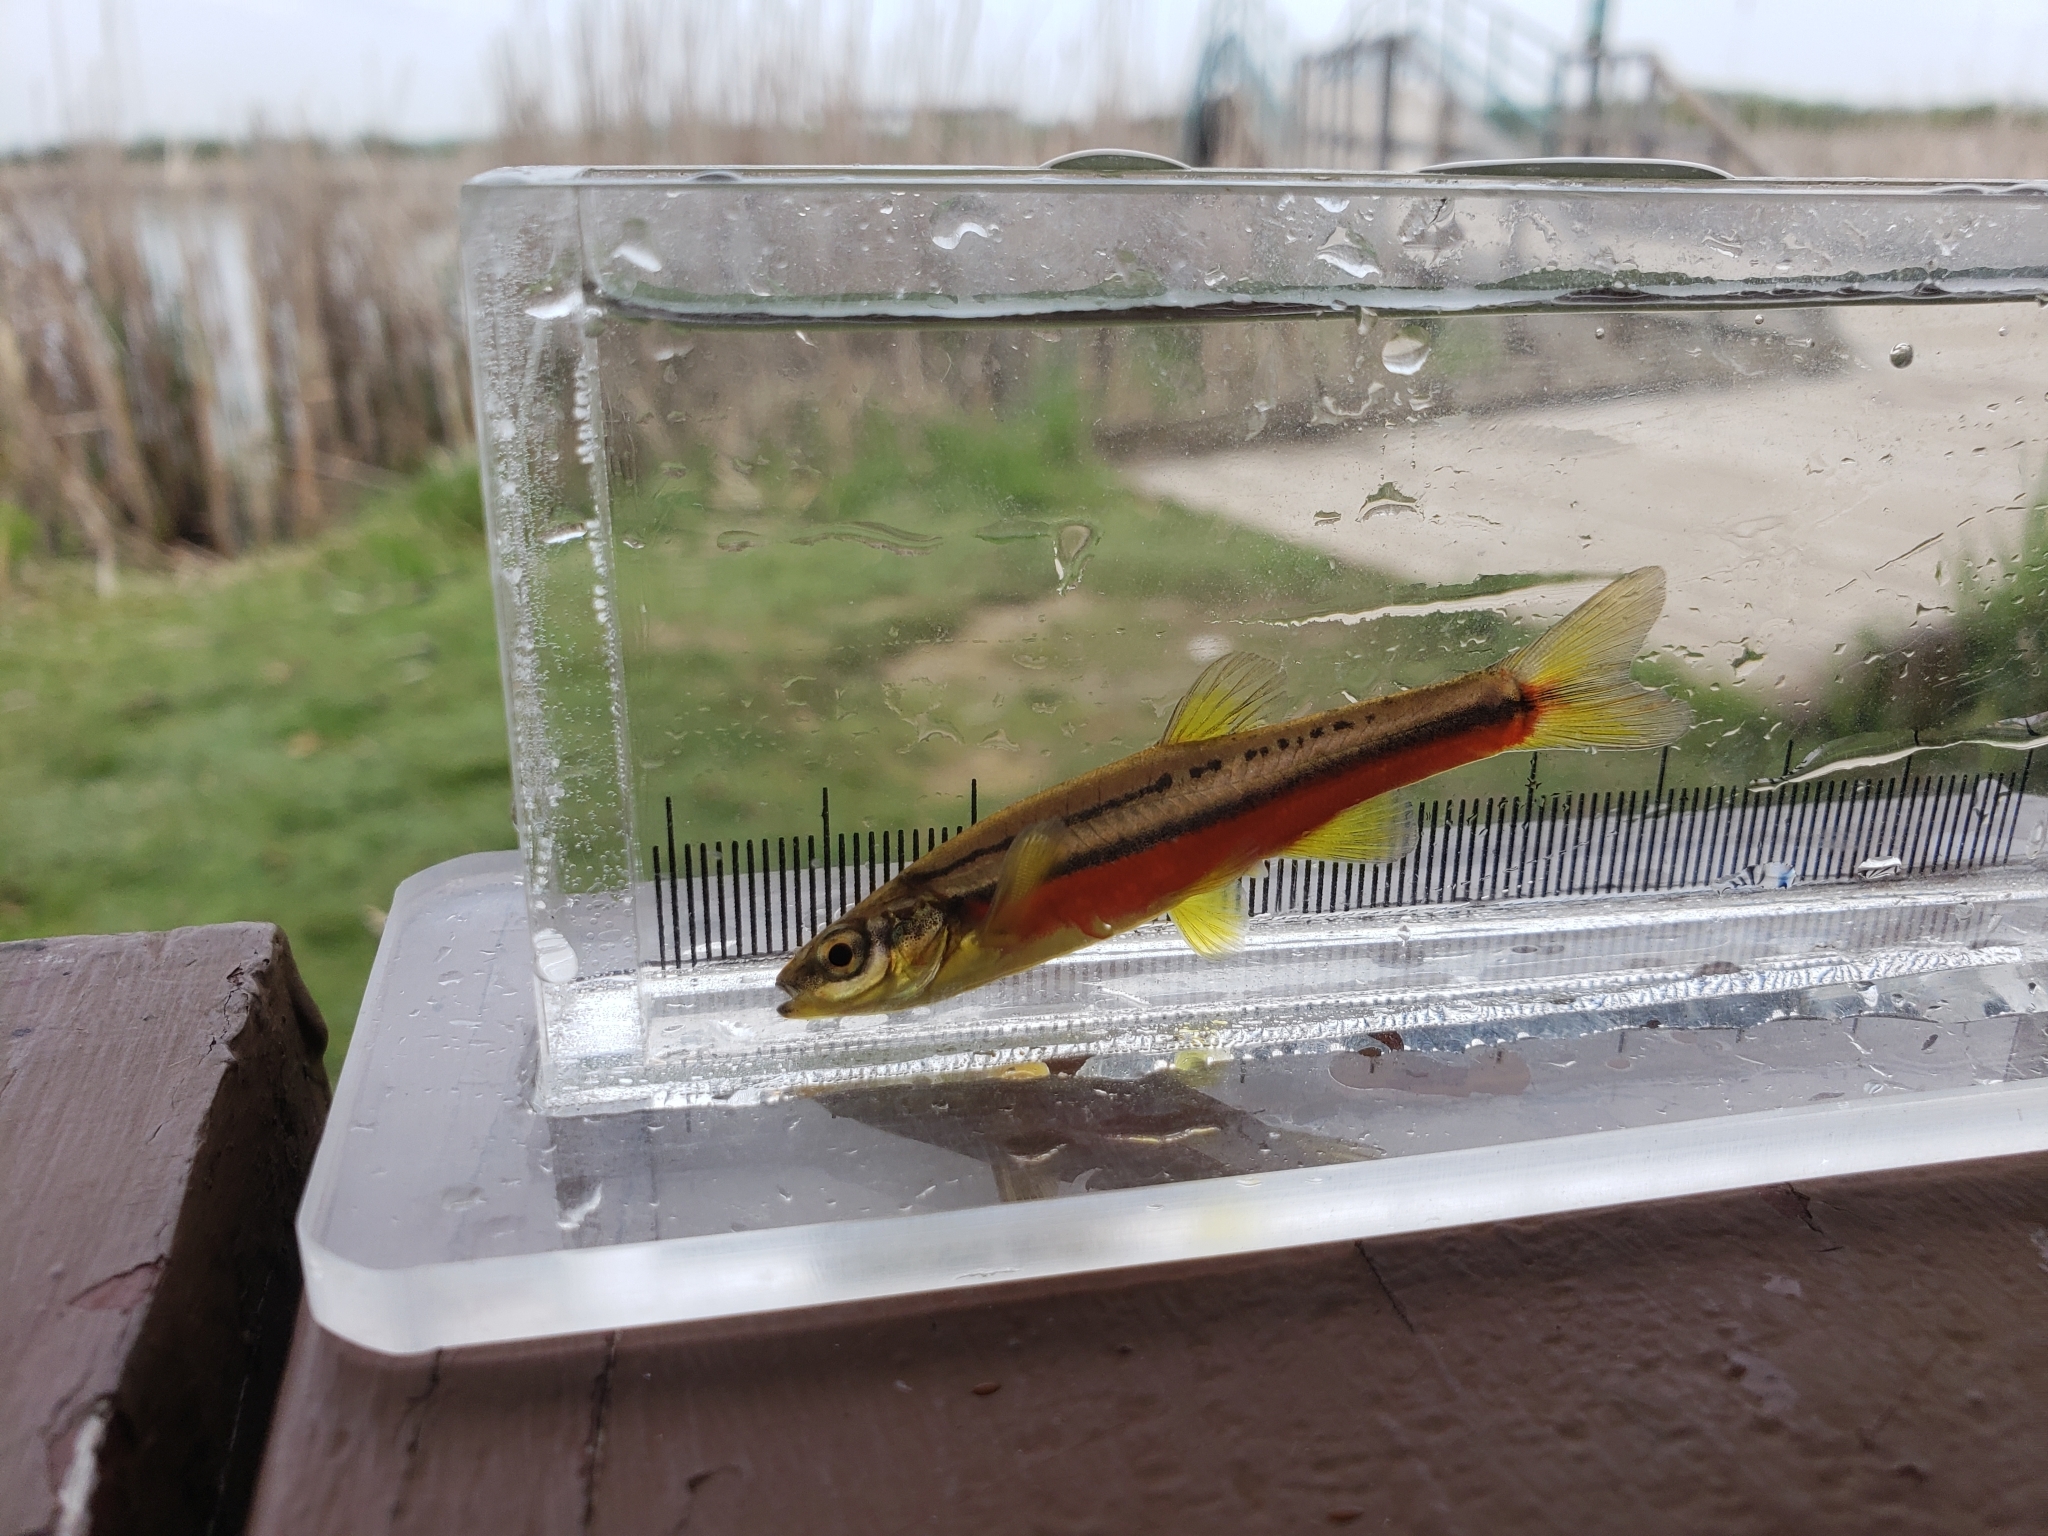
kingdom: Animalia
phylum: Chordata
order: Cypriniformes
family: Cyprinidae
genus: Chrosomus
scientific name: Chrosomus eos
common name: Northern redbelly dace
